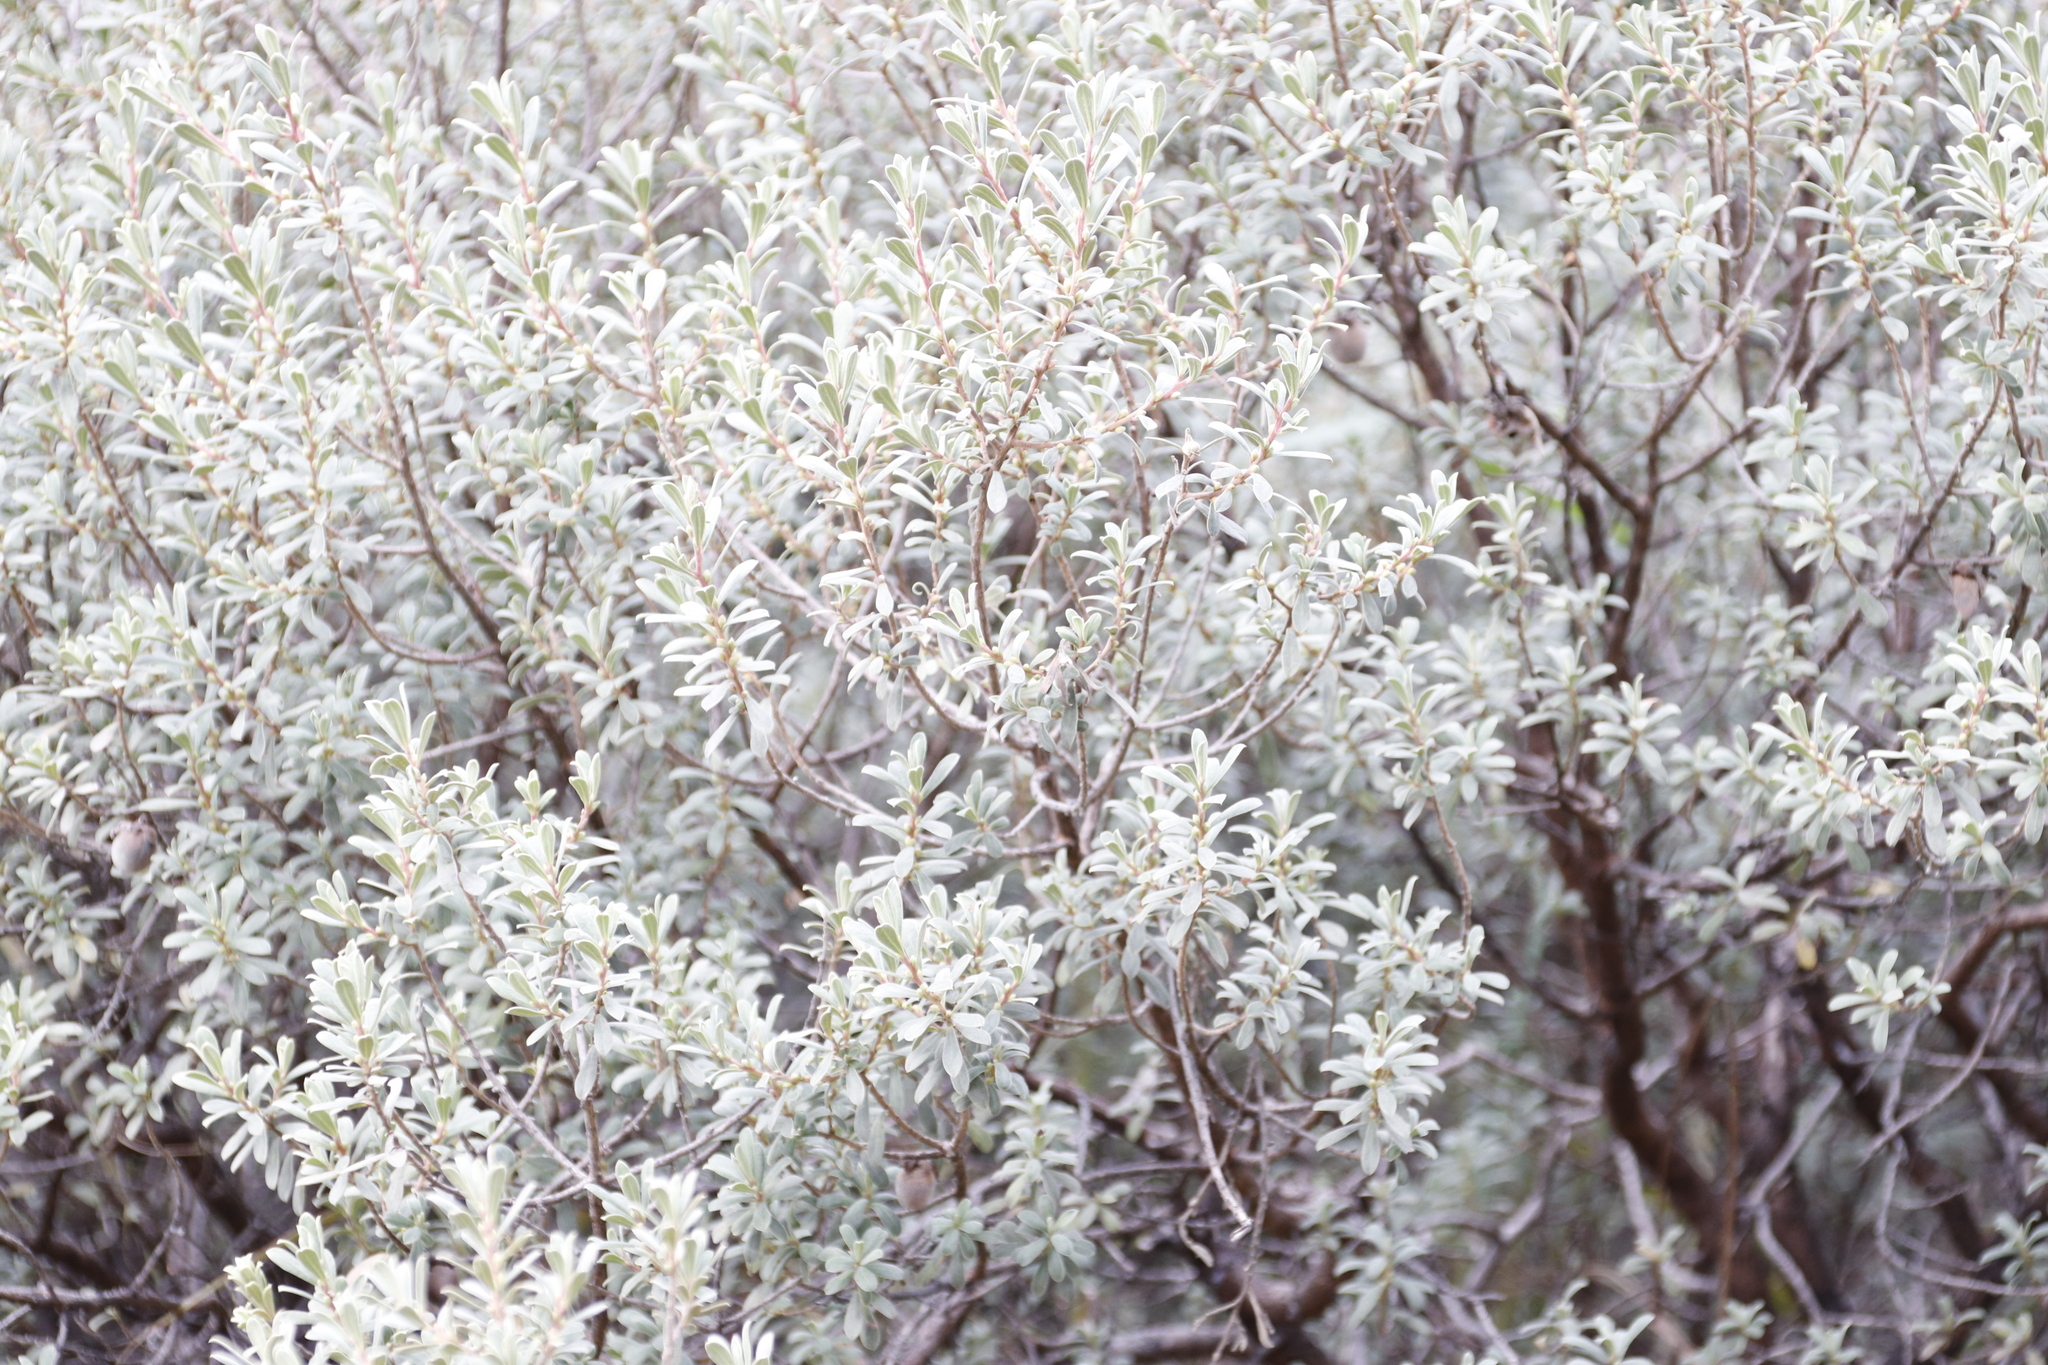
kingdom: Plantae
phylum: Tracheophyta
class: Magnoliopsida
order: Ericales
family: Ebenaceae
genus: Diospyros
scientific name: Diospyros pubescens
